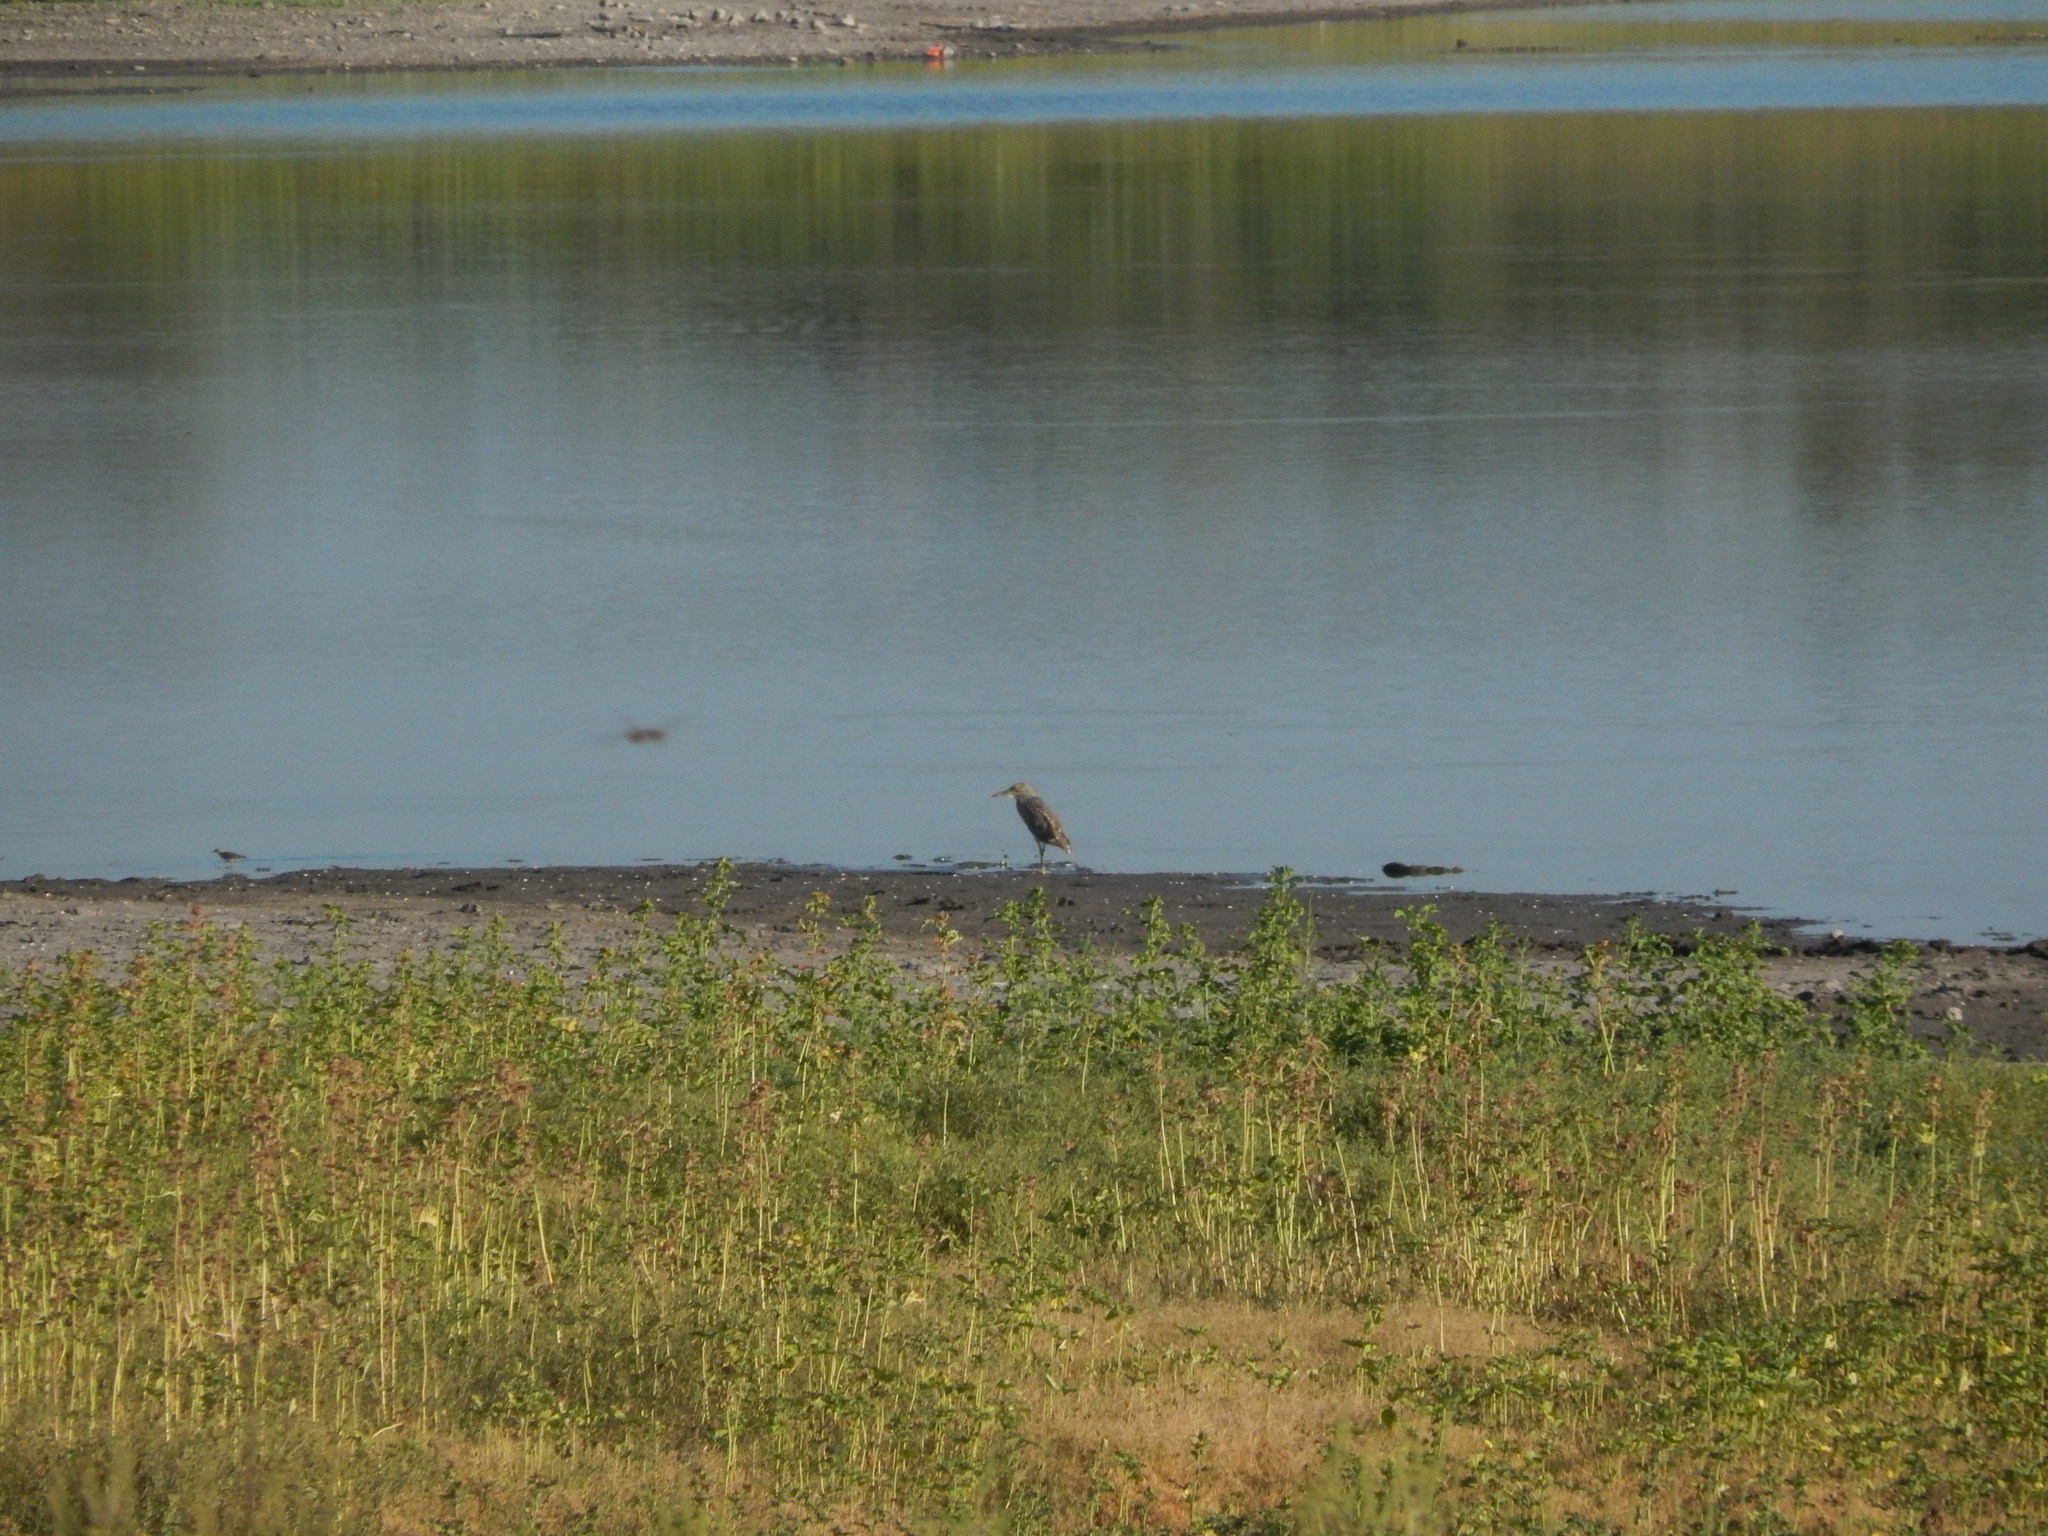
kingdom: Animalia
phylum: Chordata
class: Aves
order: Pelecaniformes
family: Ardeidae
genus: Nycticorax
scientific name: Nycticorax nycticorax
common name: Black-crowned night heron
